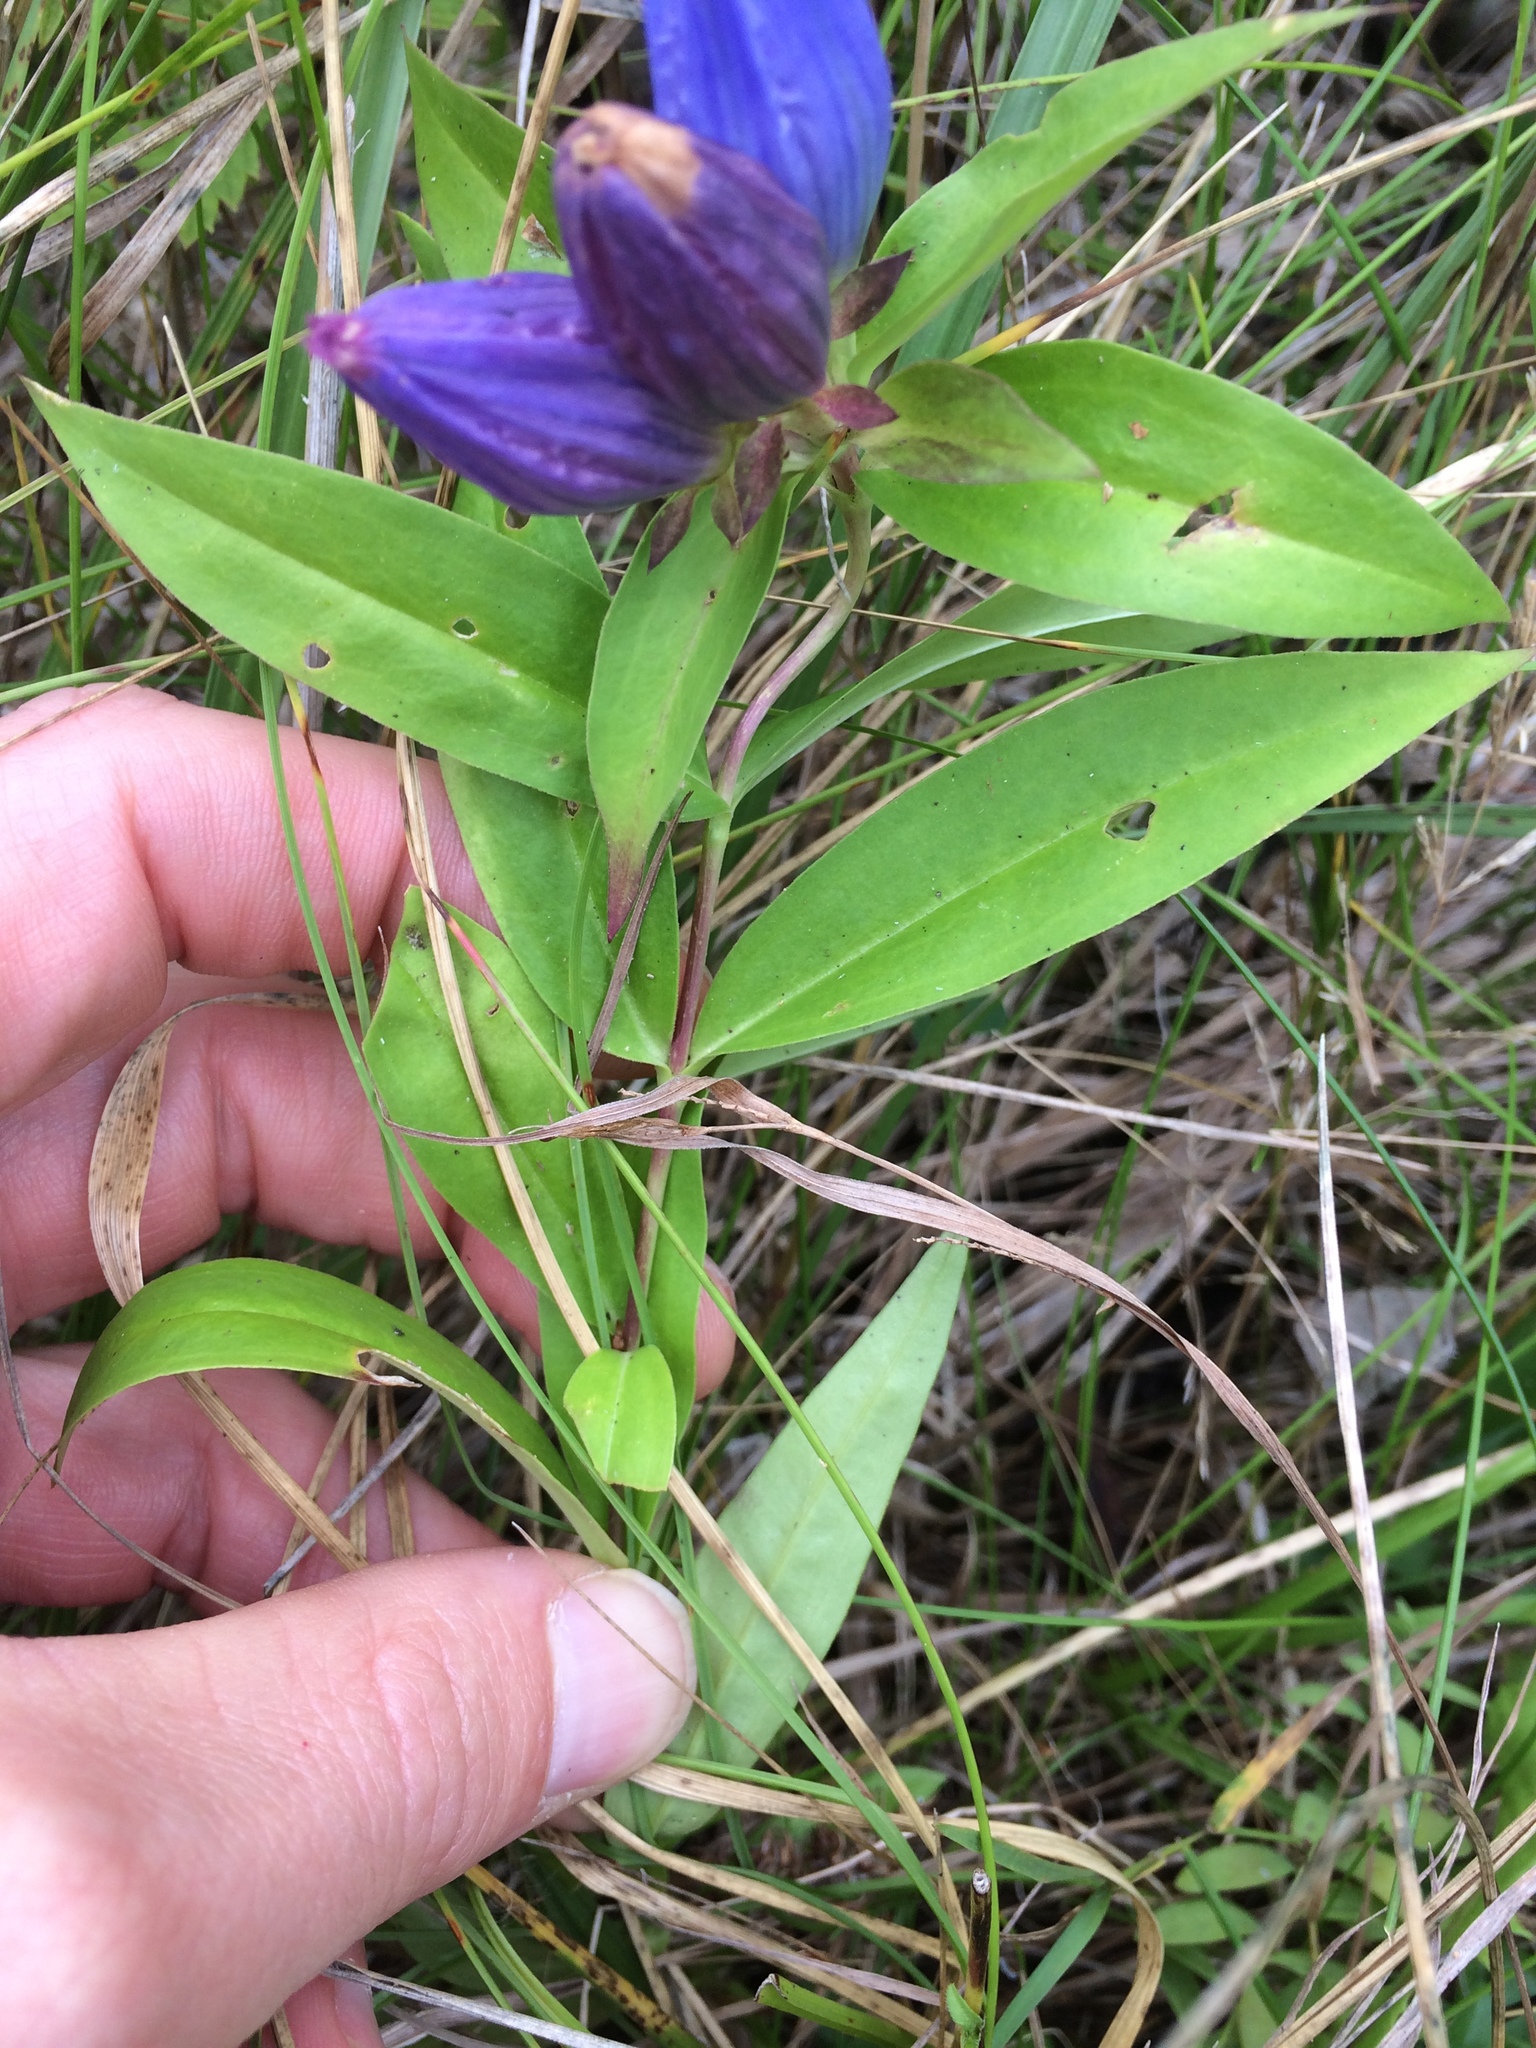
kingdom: Plantae
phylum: Tracheophyta
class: Magnoliopsida
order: Gentianales
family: Gentianaceae
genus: Gentiana
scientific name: Gentiana andrewsii
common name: Bottle gentian
